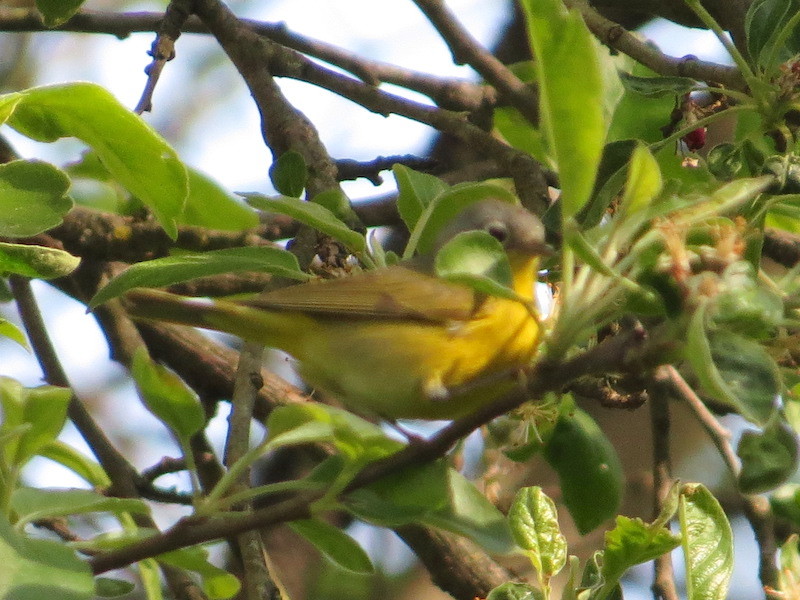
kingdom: Animalia
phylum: Chordata
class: Aves
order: Passeriformes
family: Parulidae
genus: Leiothlypis
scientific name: Leiothlypis ruficapilla
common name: Nashville warbler
